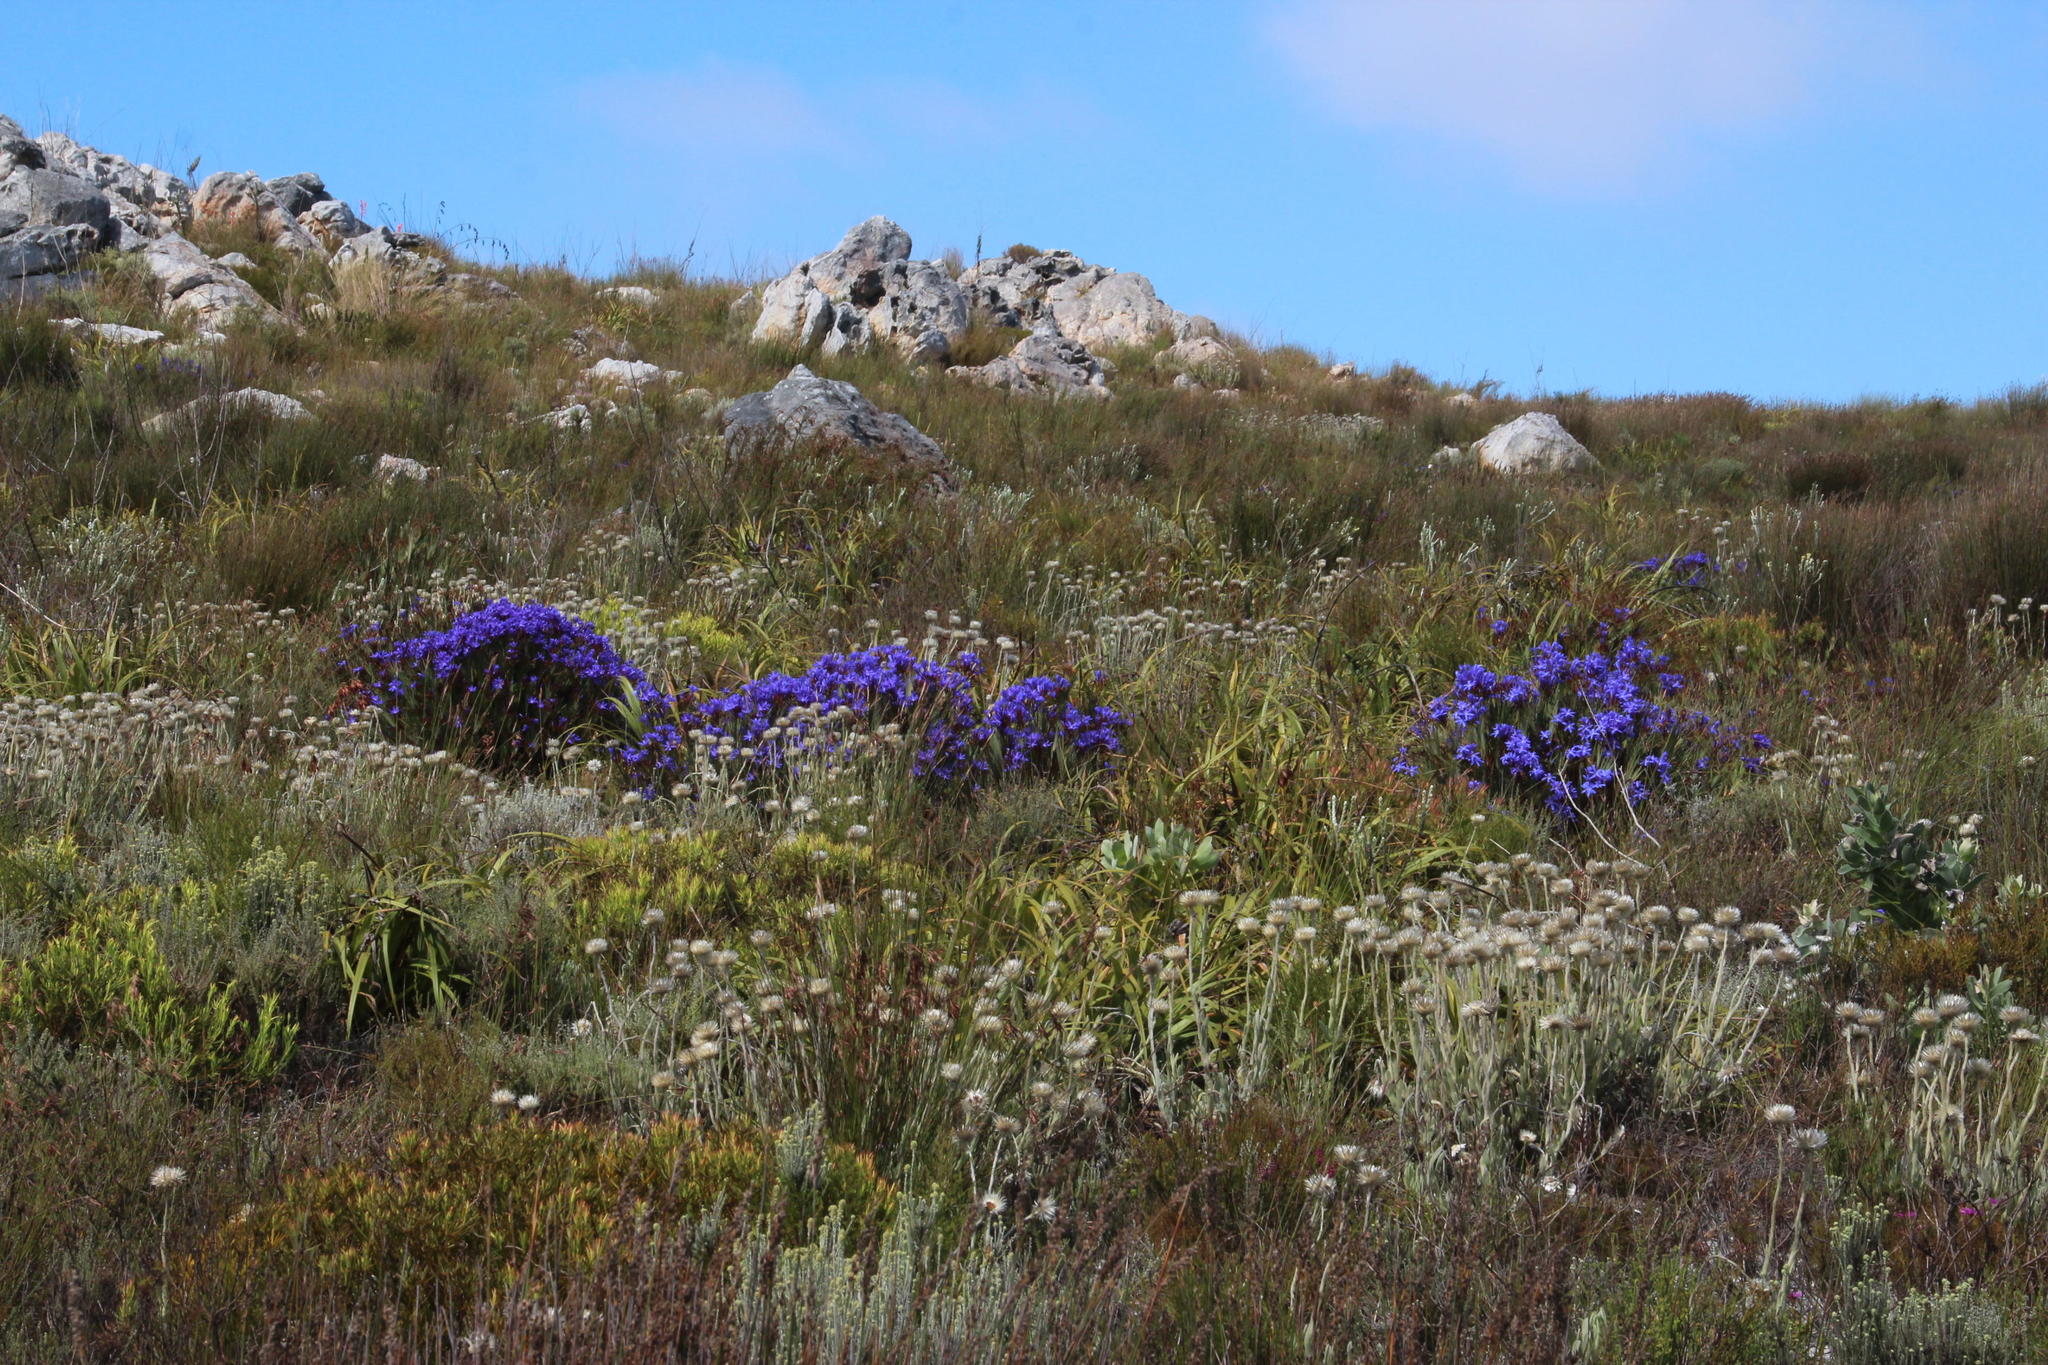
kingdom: Plantae
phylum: Tracheophyta
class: Liliopsida
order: Asparagales
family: Iridaceae
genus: Nivenia
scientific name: Nivenia stokoei
